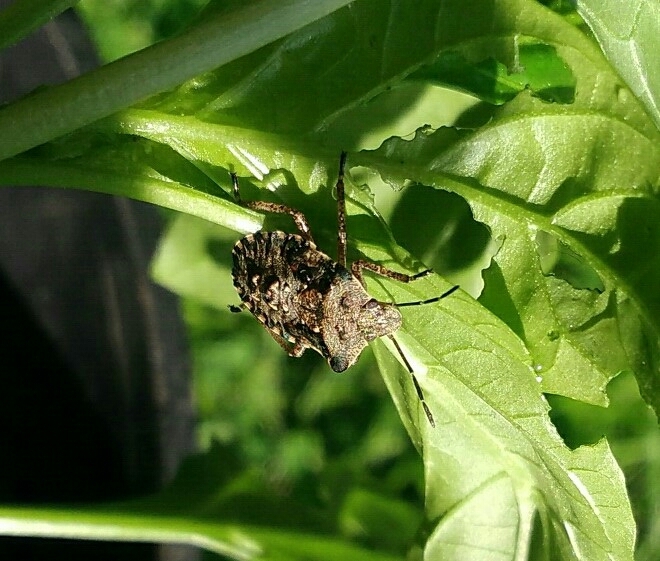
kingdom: Animalia
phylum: Arthropoda
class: Insecta
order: Hemiptera
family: Pentatomidae
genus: Pentatoma
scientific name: Pentatoma rufipes
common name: Forest bug
